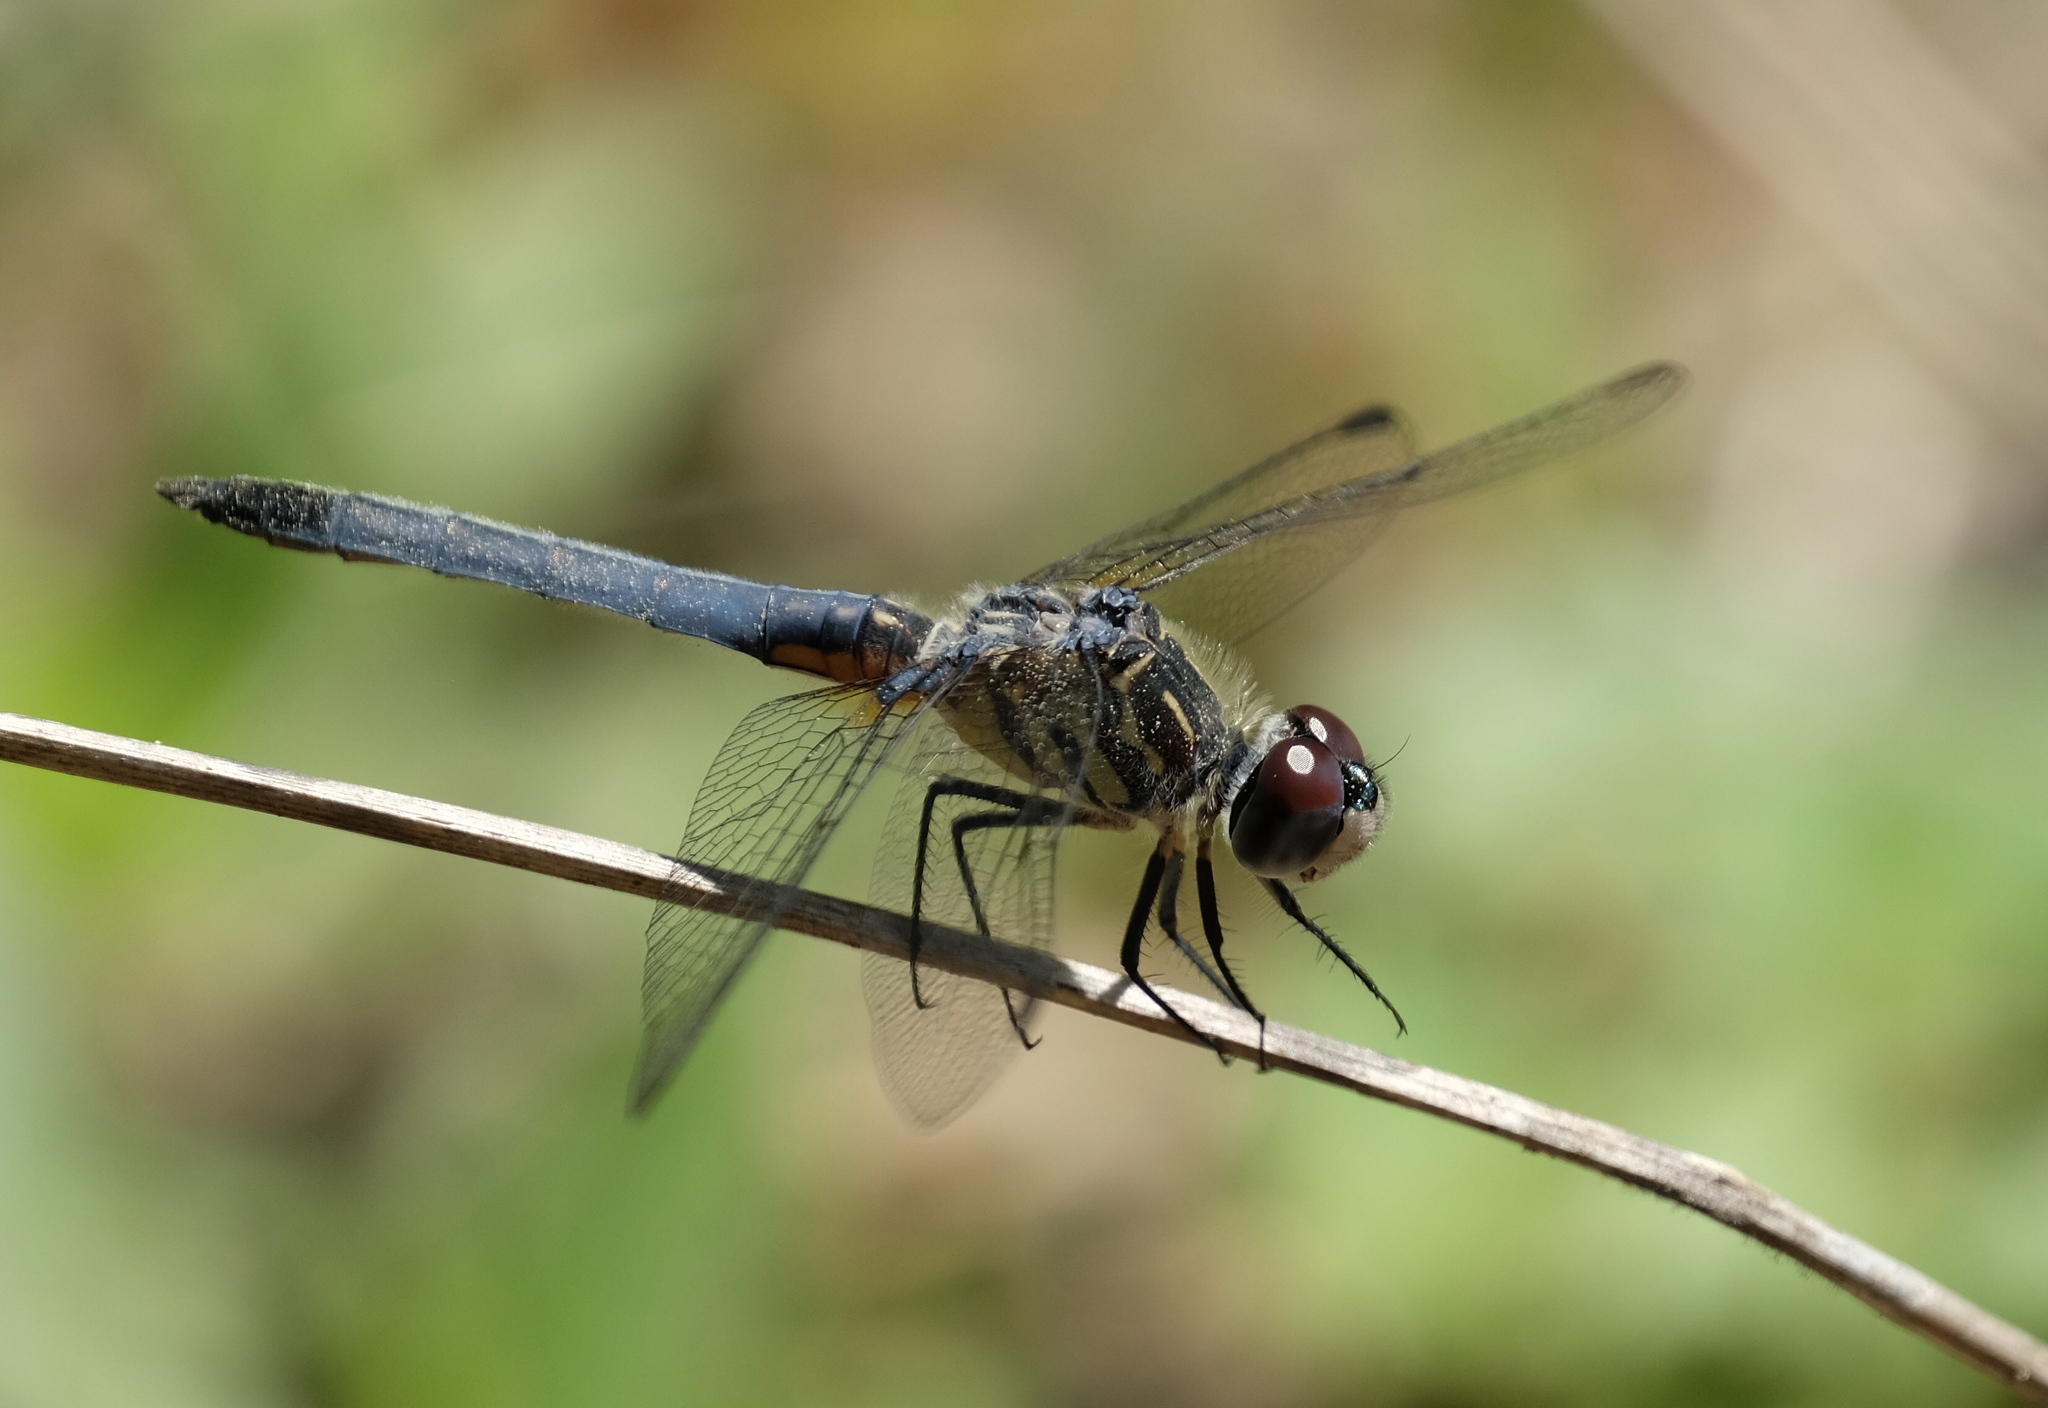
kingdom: Animalia
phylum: Arthropoda
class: Insecta
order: Odonata
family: Libellulidae
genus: Pachydiplax
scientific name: Pachydiplax longipennis
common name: Blue dasher
